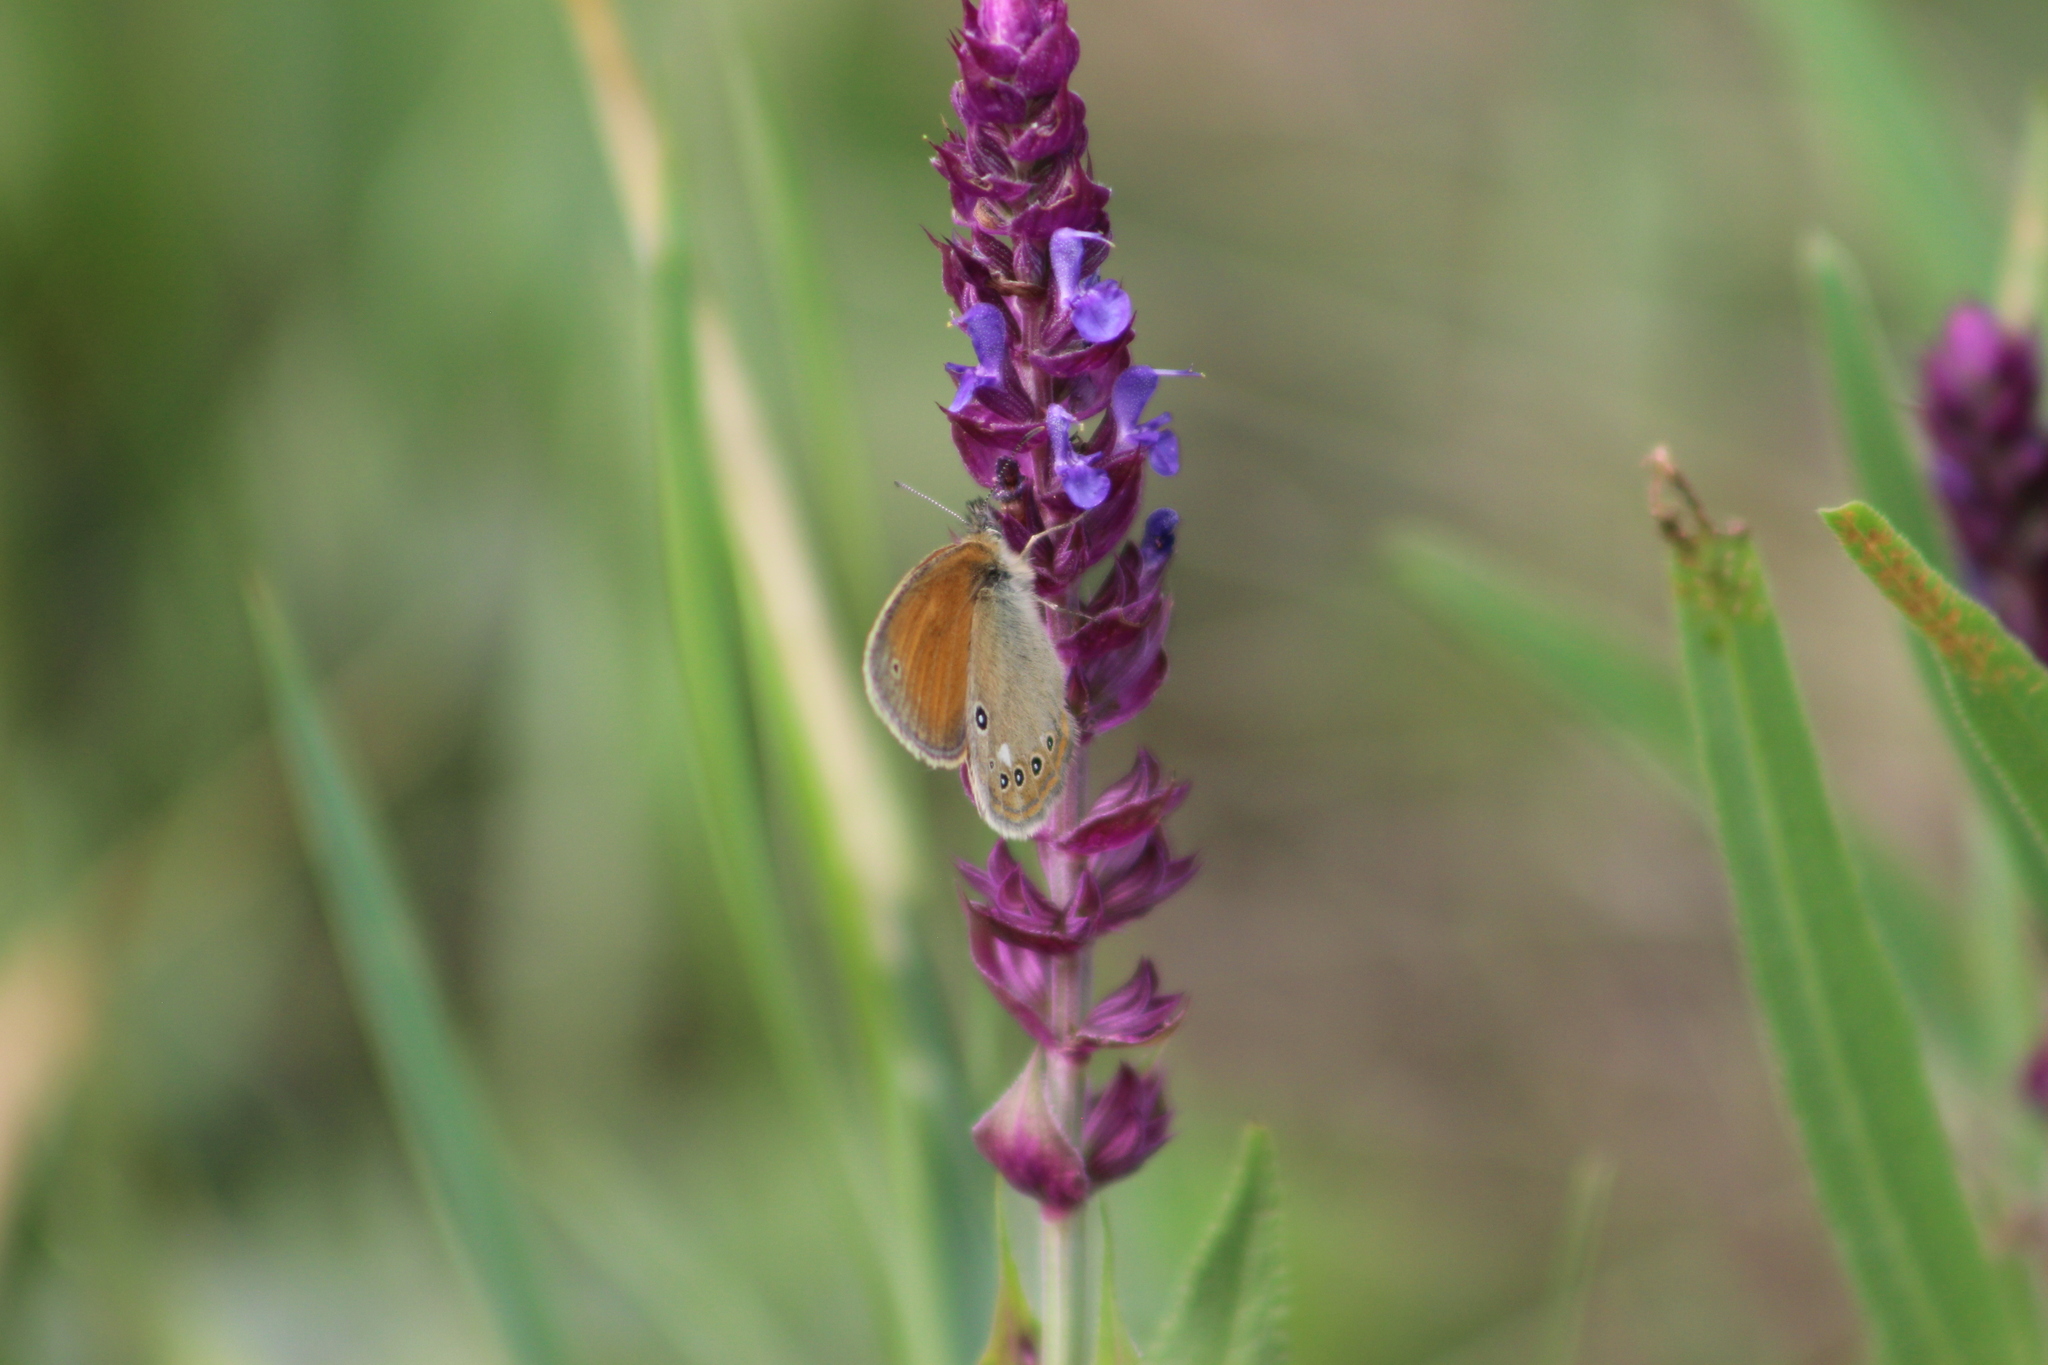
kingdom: Animalia
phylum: Arthropoda
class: Insecta
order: Lepidoptera
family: Nymphalidae
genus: Coenonympha
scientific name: Coenonympha iphis
